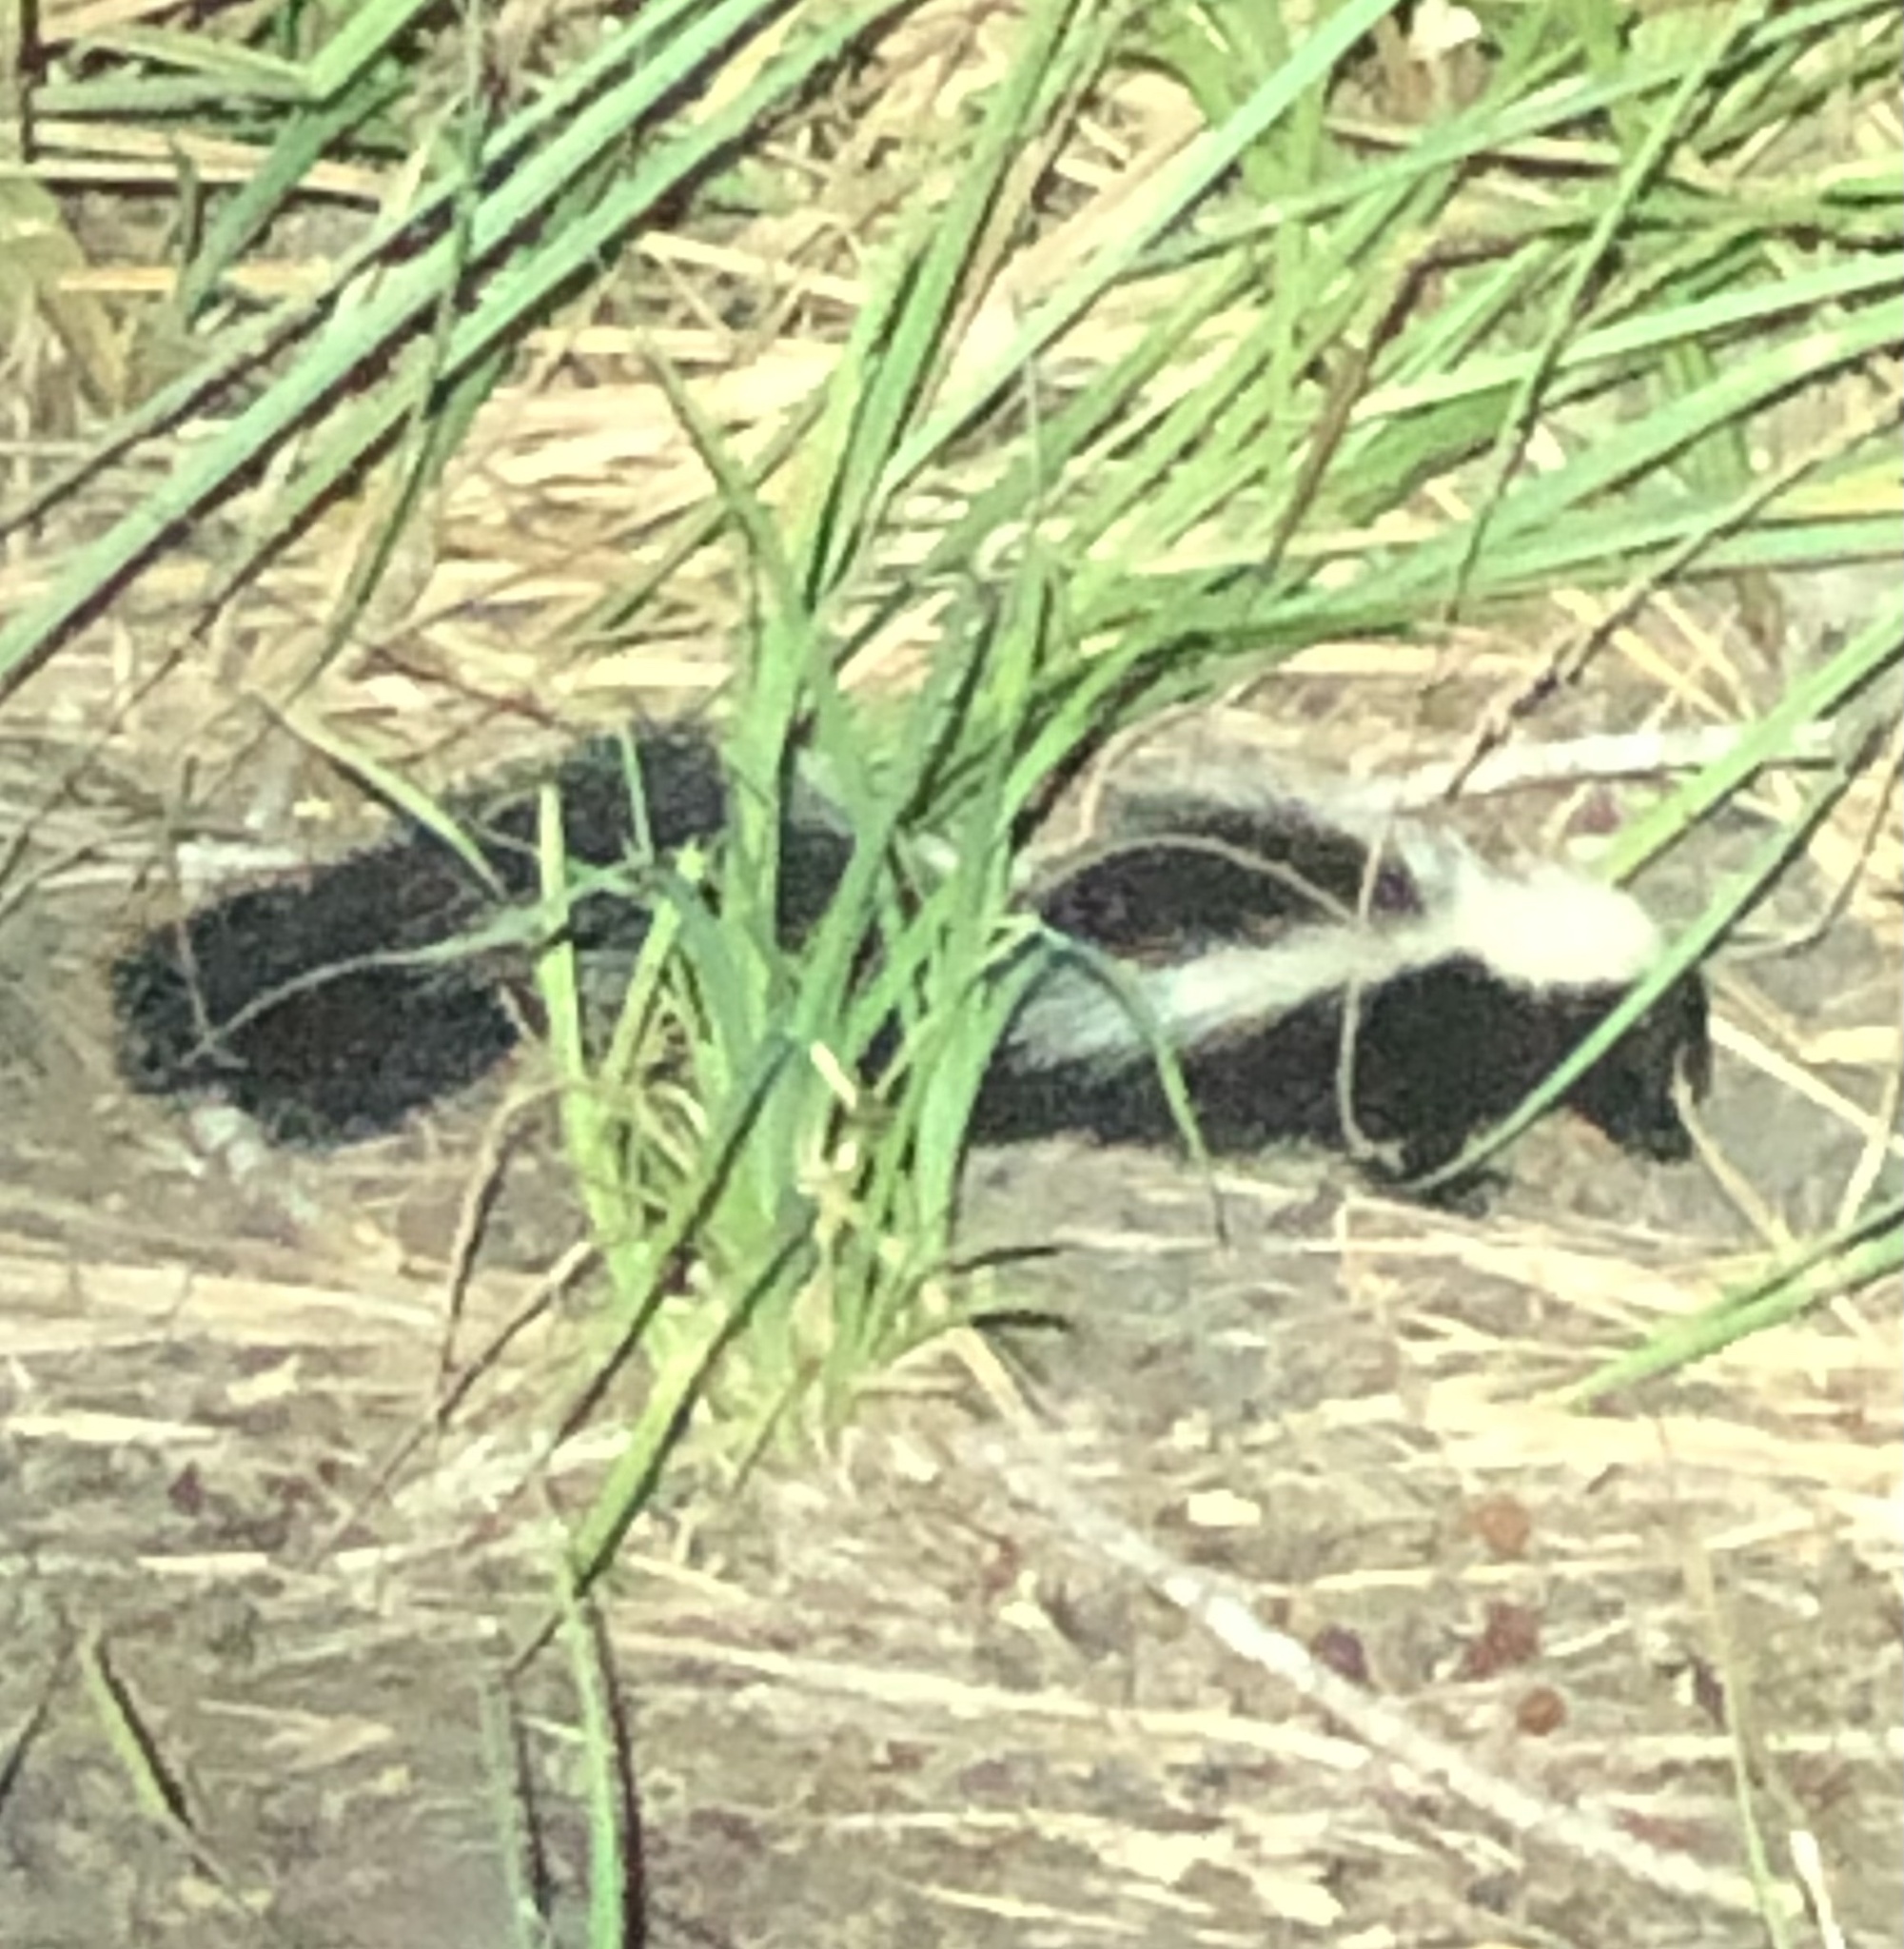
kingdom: Animalia
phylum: Chordata
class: Mammalia
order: Carnivora
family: Mephitidae
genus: Mephitis
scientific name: Mephitis mephitis
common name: Striped skunk
